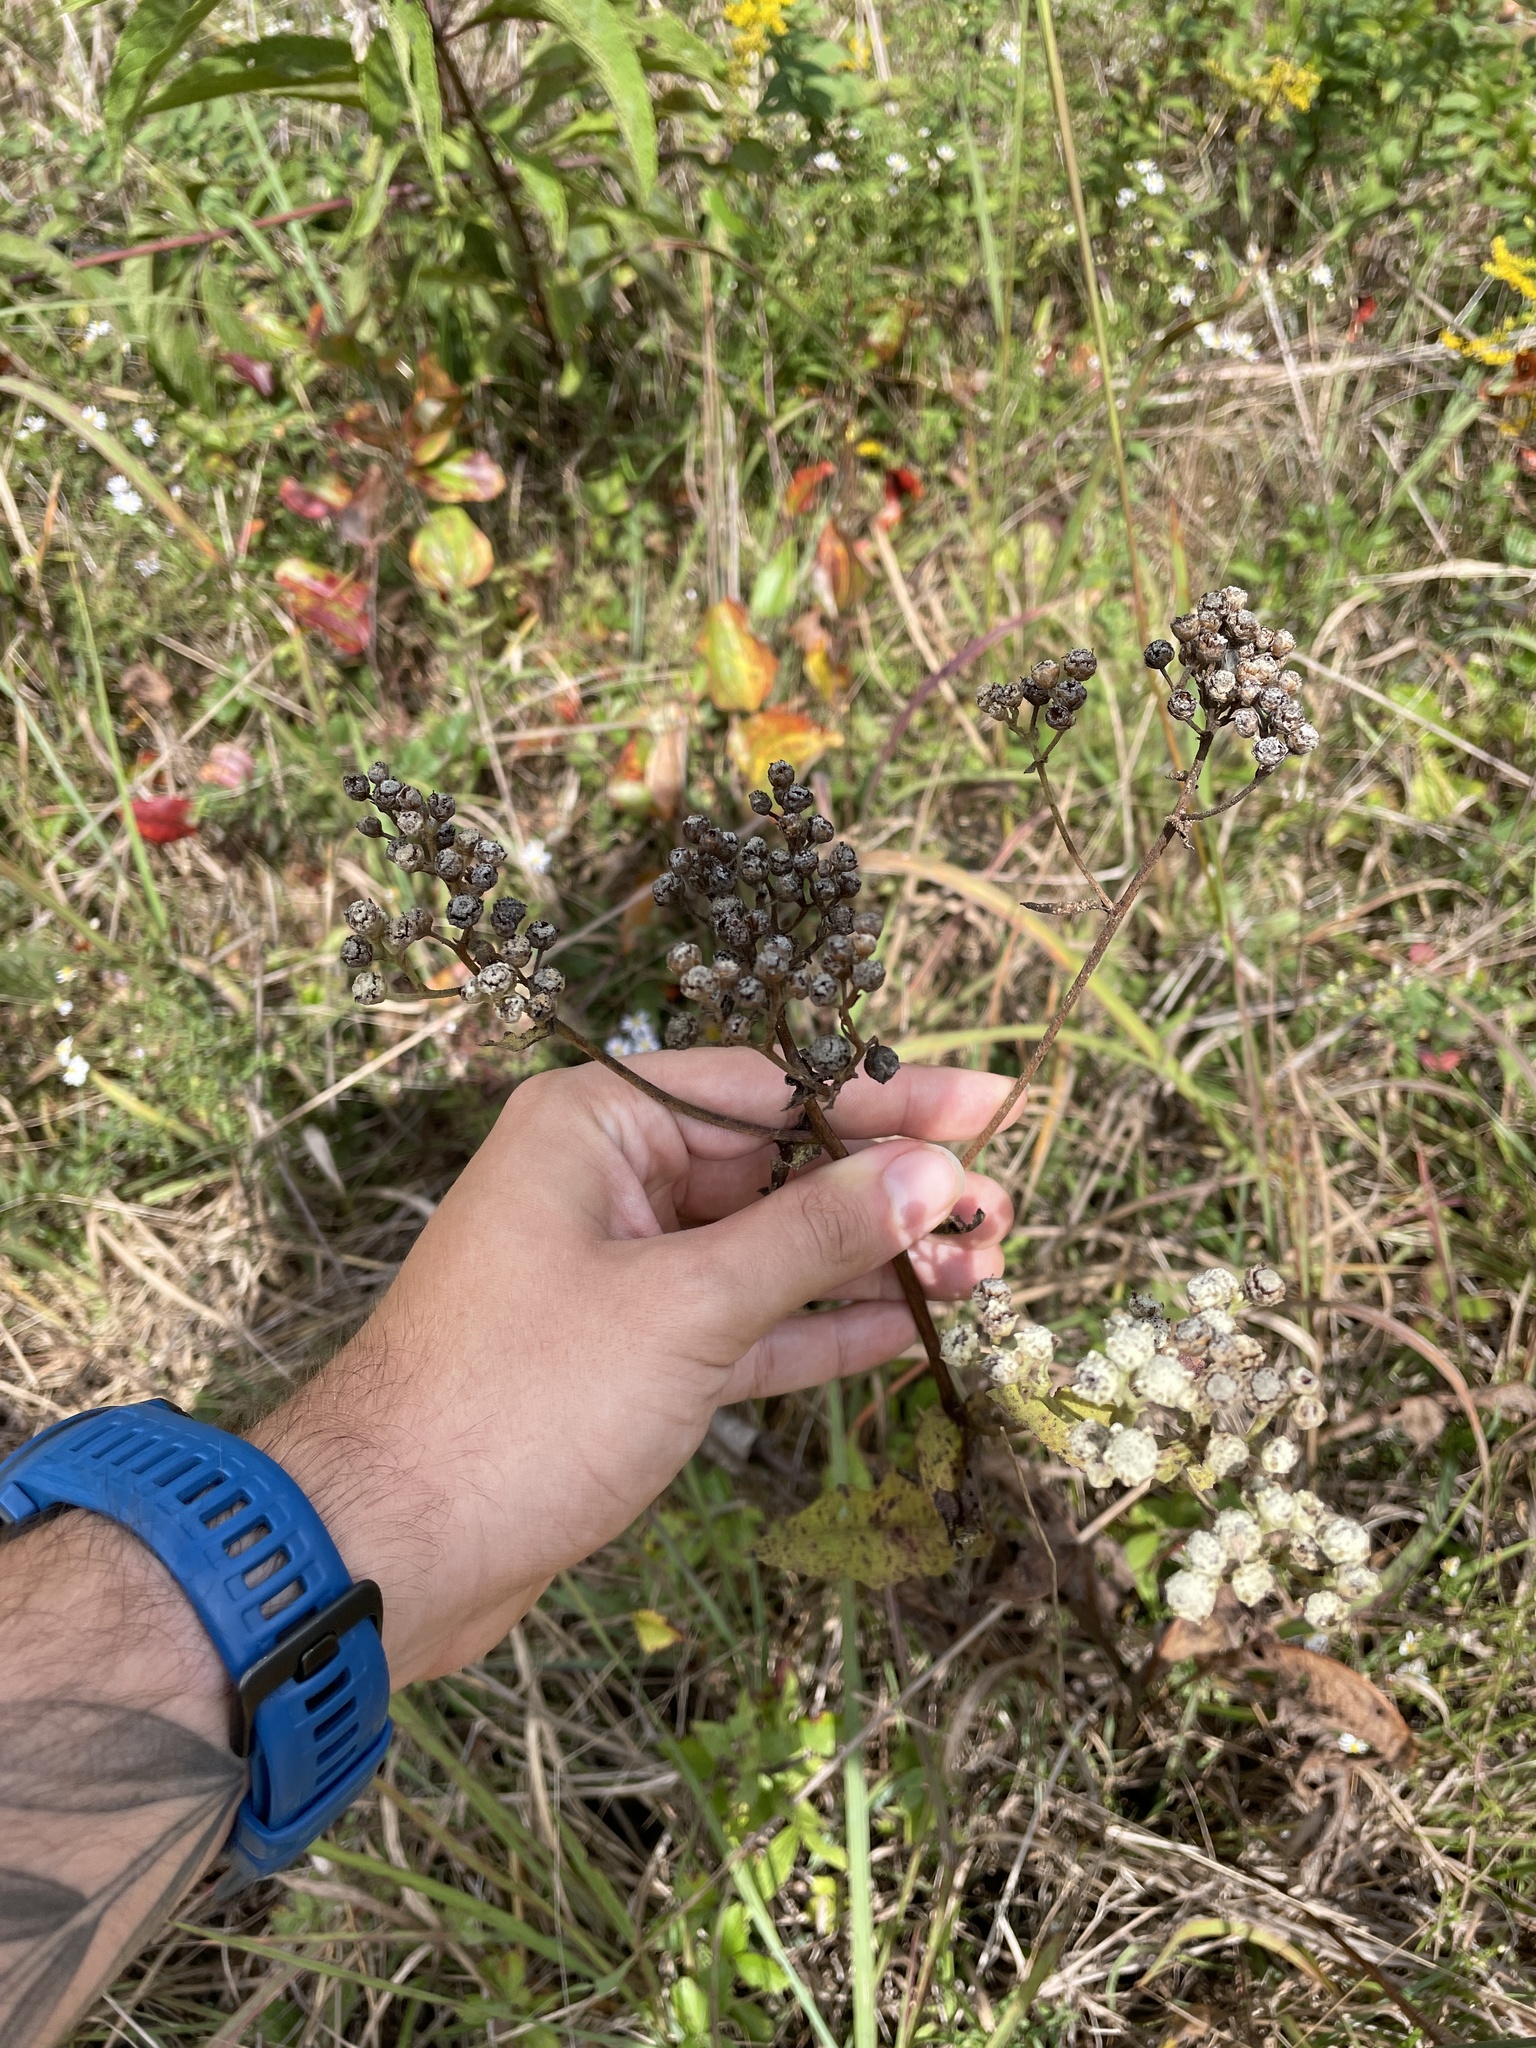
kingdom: Plantae
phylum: Tracheophyta
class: Magnoliopsida
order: Asterales
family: Asteraceae
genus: Parthenium
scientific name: Parthenium integrifolium
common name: American feverfew
